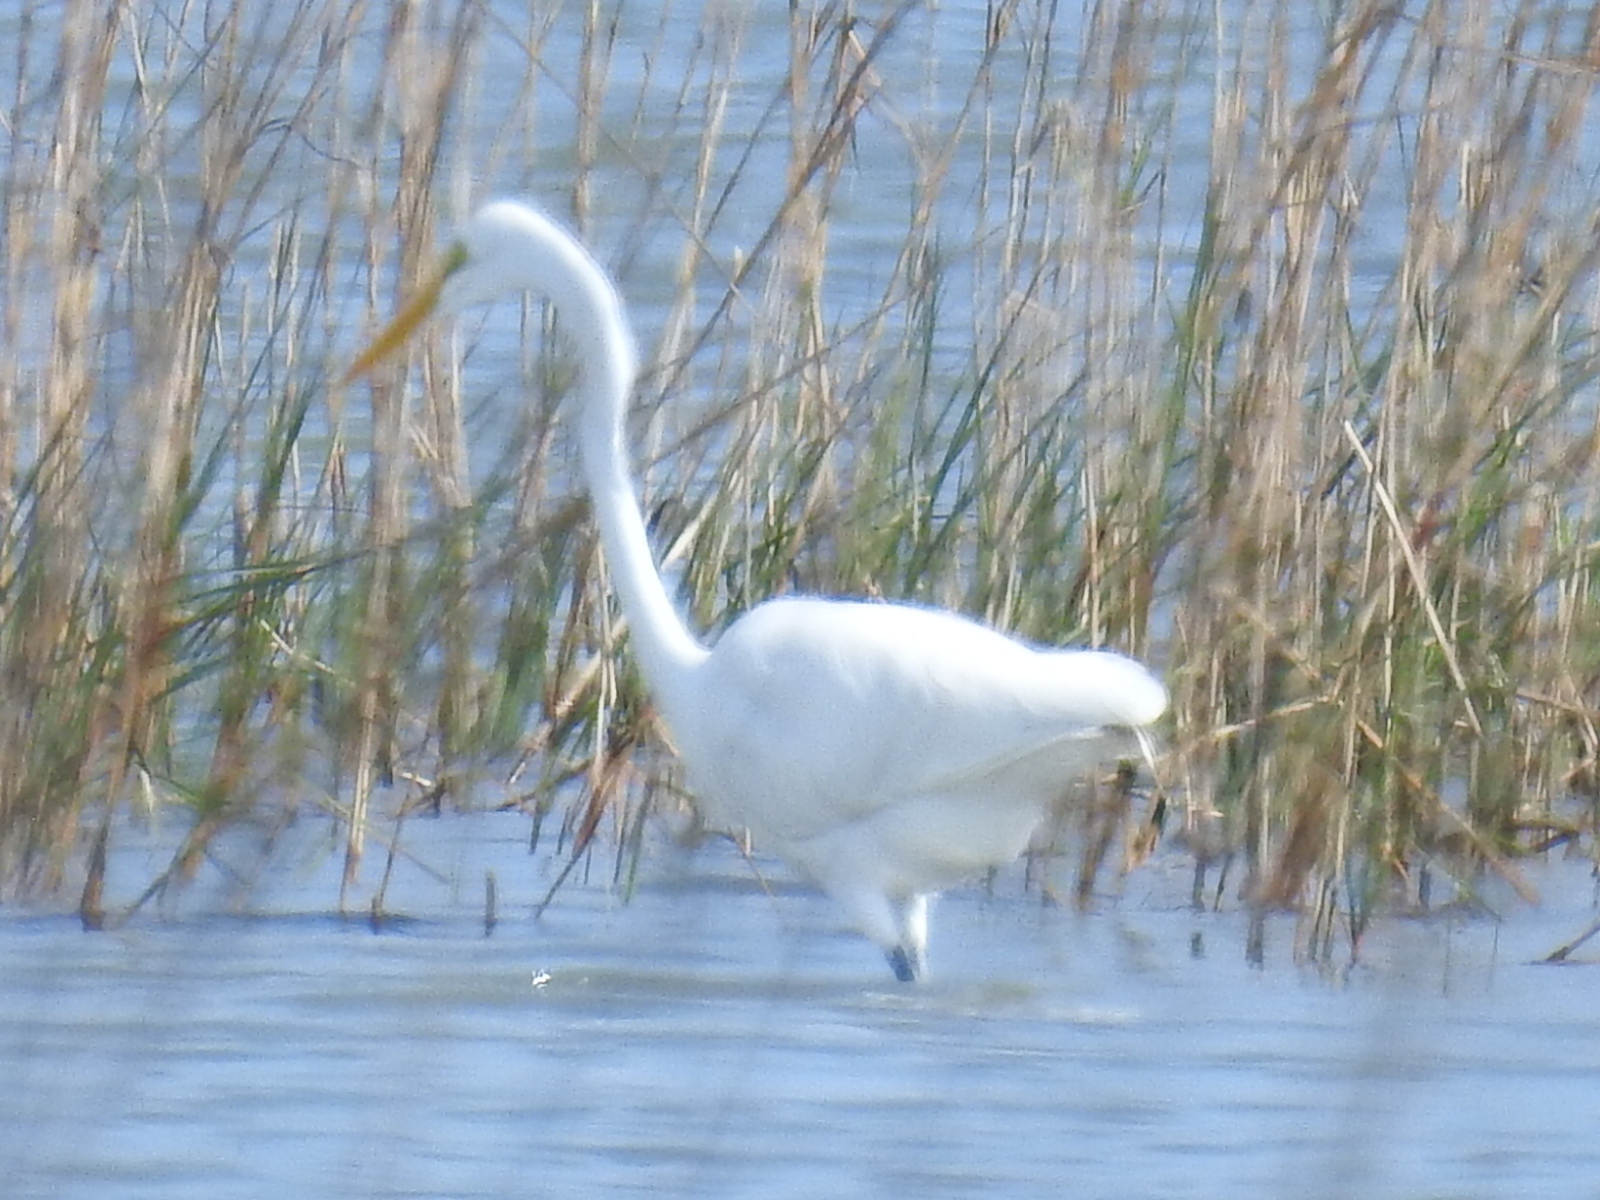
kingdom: Animalia
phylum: Chordata
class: Aves
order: Pelecaniformes
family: Ardeidae
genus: Ardea
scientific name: Ardea alba
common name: Great egret
